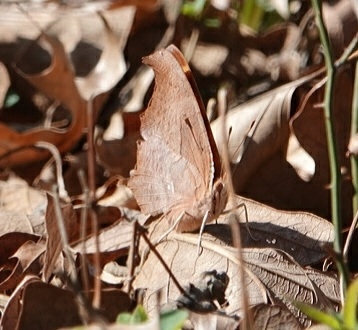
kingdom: Animalia
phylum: Arthropoda
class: Insecta
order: Lepidoptera
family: Nymphalidae
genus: Polygonia
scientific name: Polygonia interrogationis
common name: Question mark
